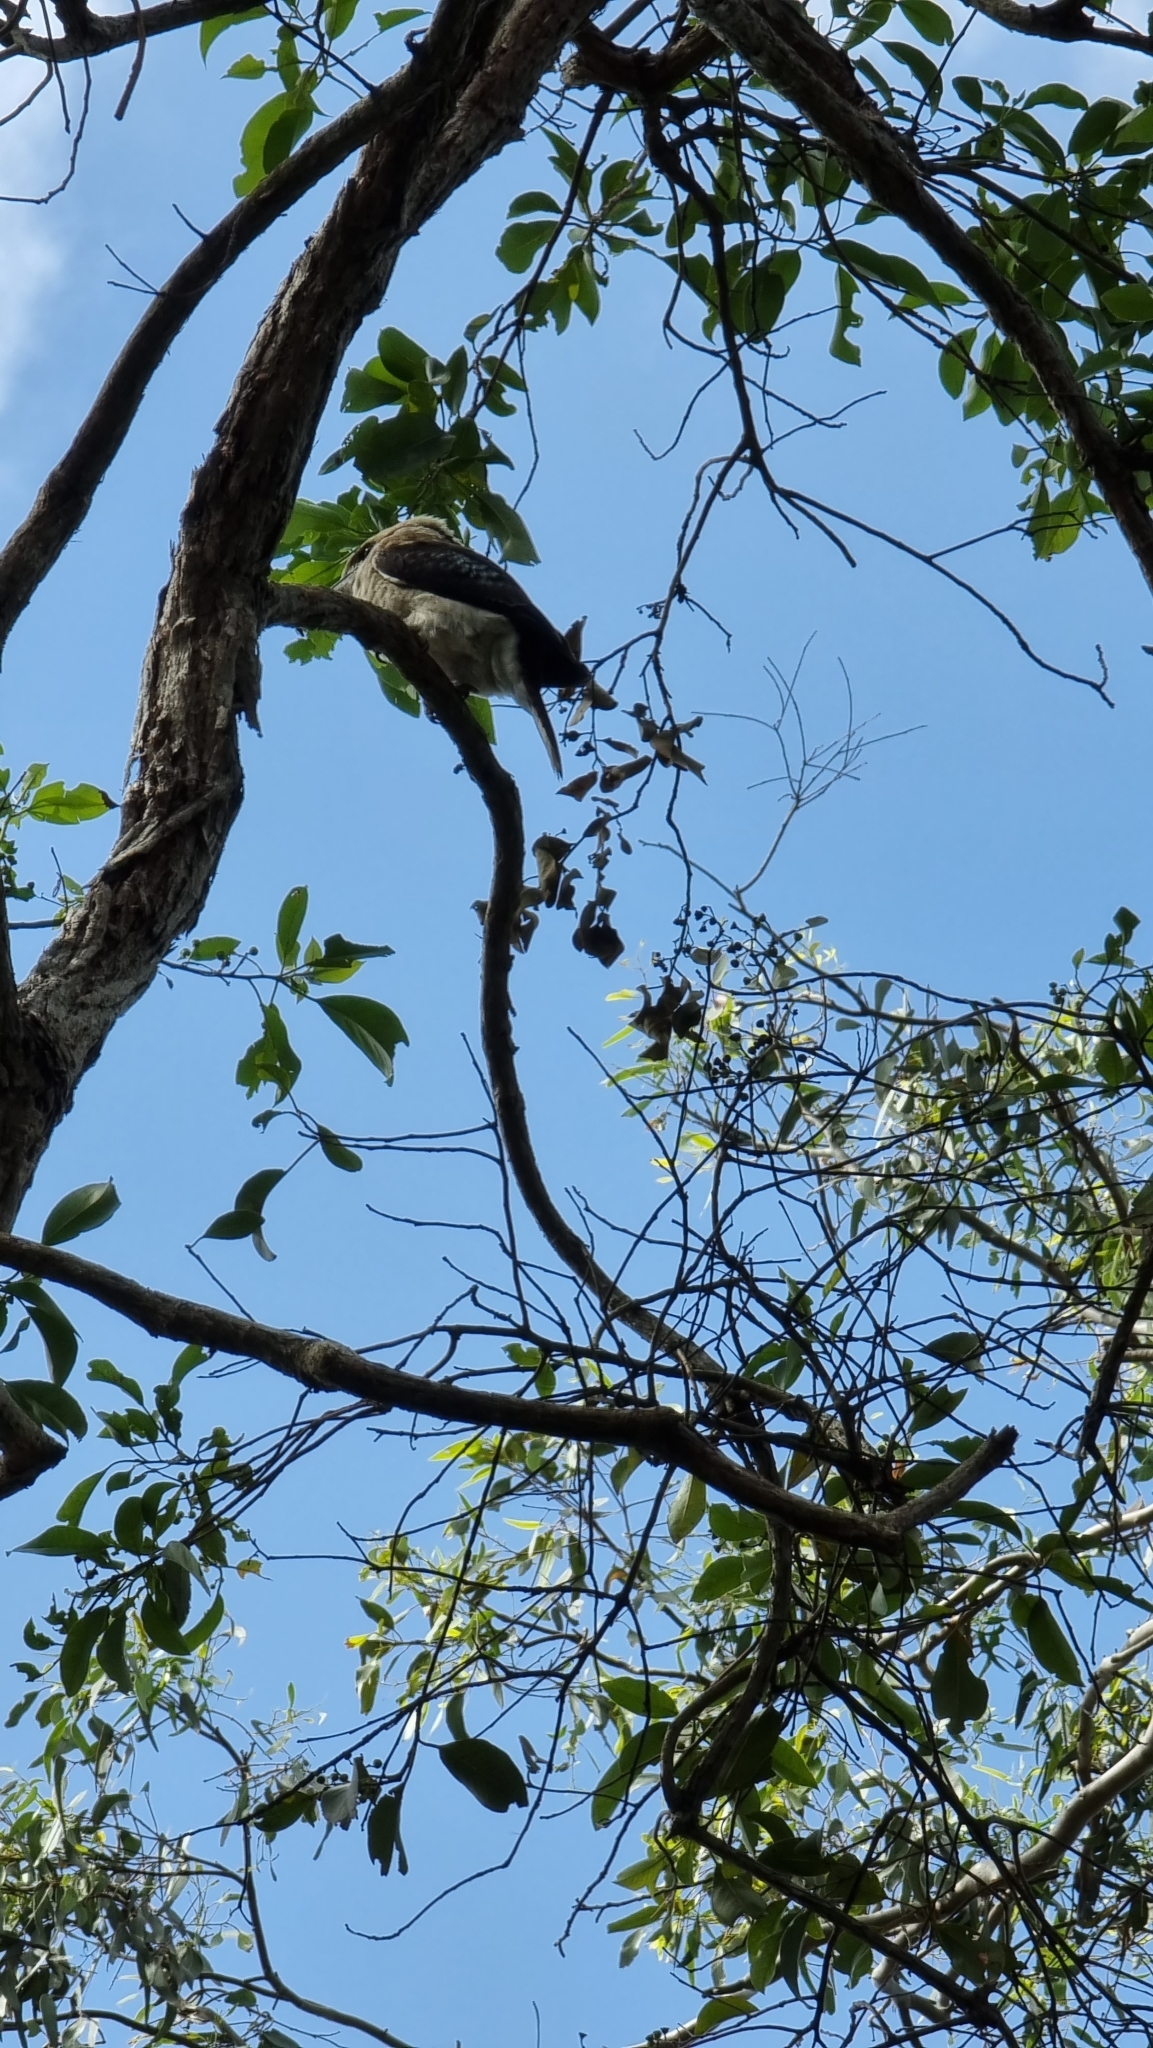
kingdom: Animalia
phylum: Chordata
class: Aves
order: Coraciiformes
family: Alcedinidae
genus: Dacelo
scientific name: Dacelo novaeguineae
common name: Laughing kookaburra
